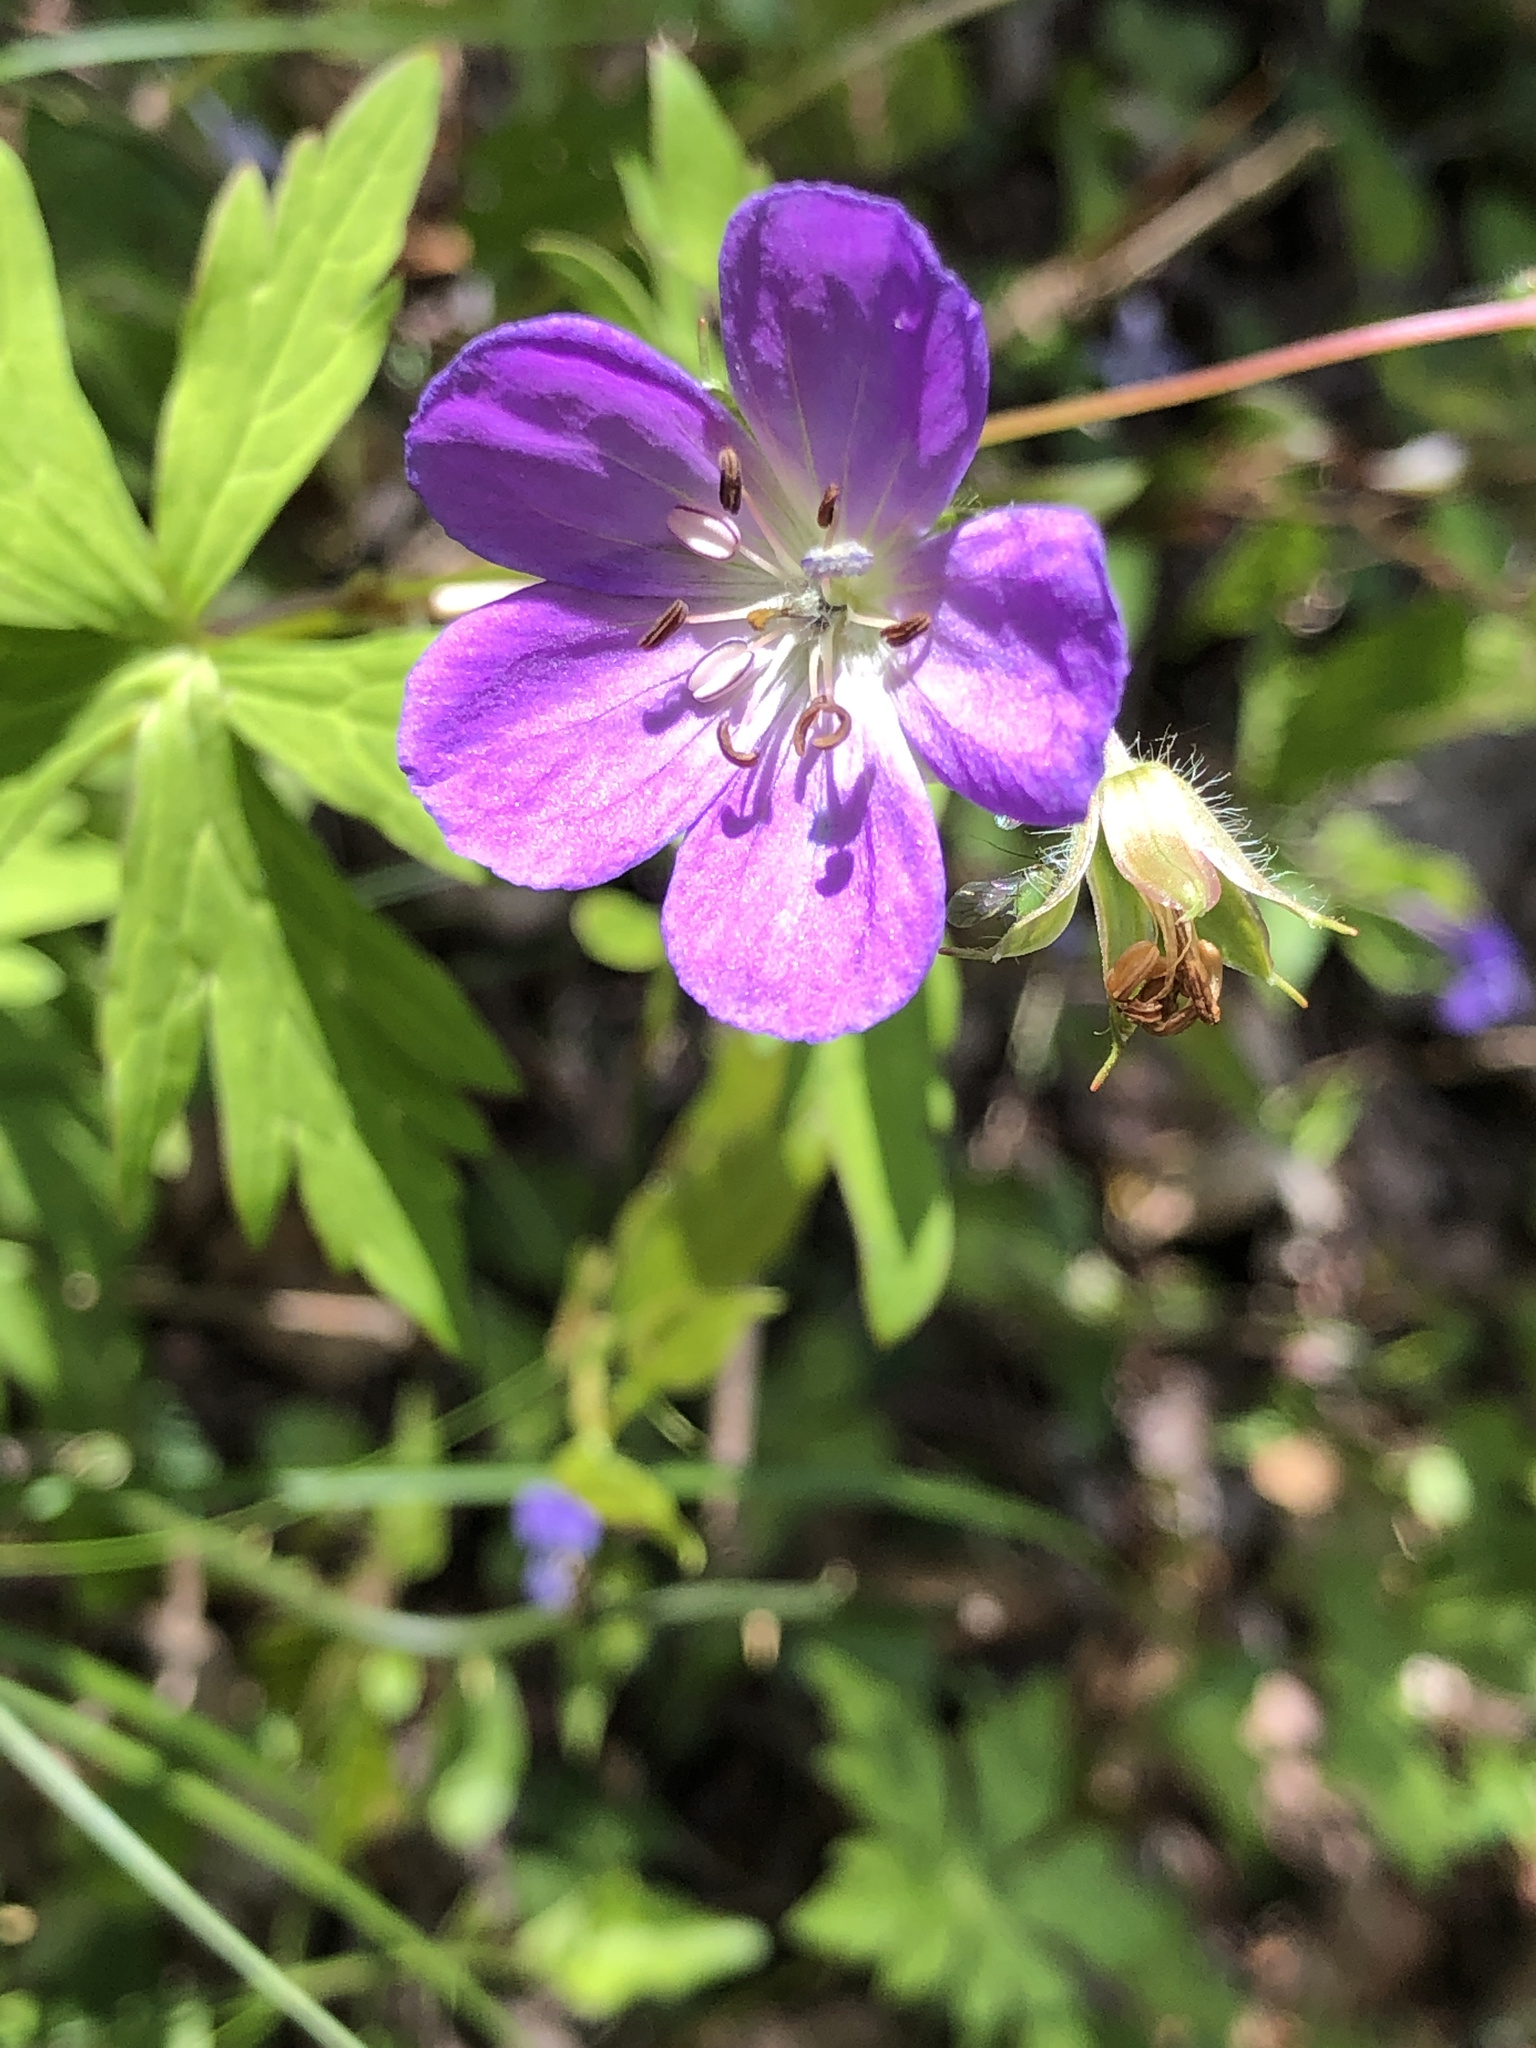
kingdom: Plantae
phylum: Tracheophyta
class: Magnoliopsida
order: Geraniales
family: Geraniaceae
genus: Geranium
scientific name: Geranium maculatum
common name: Spotted geranium
